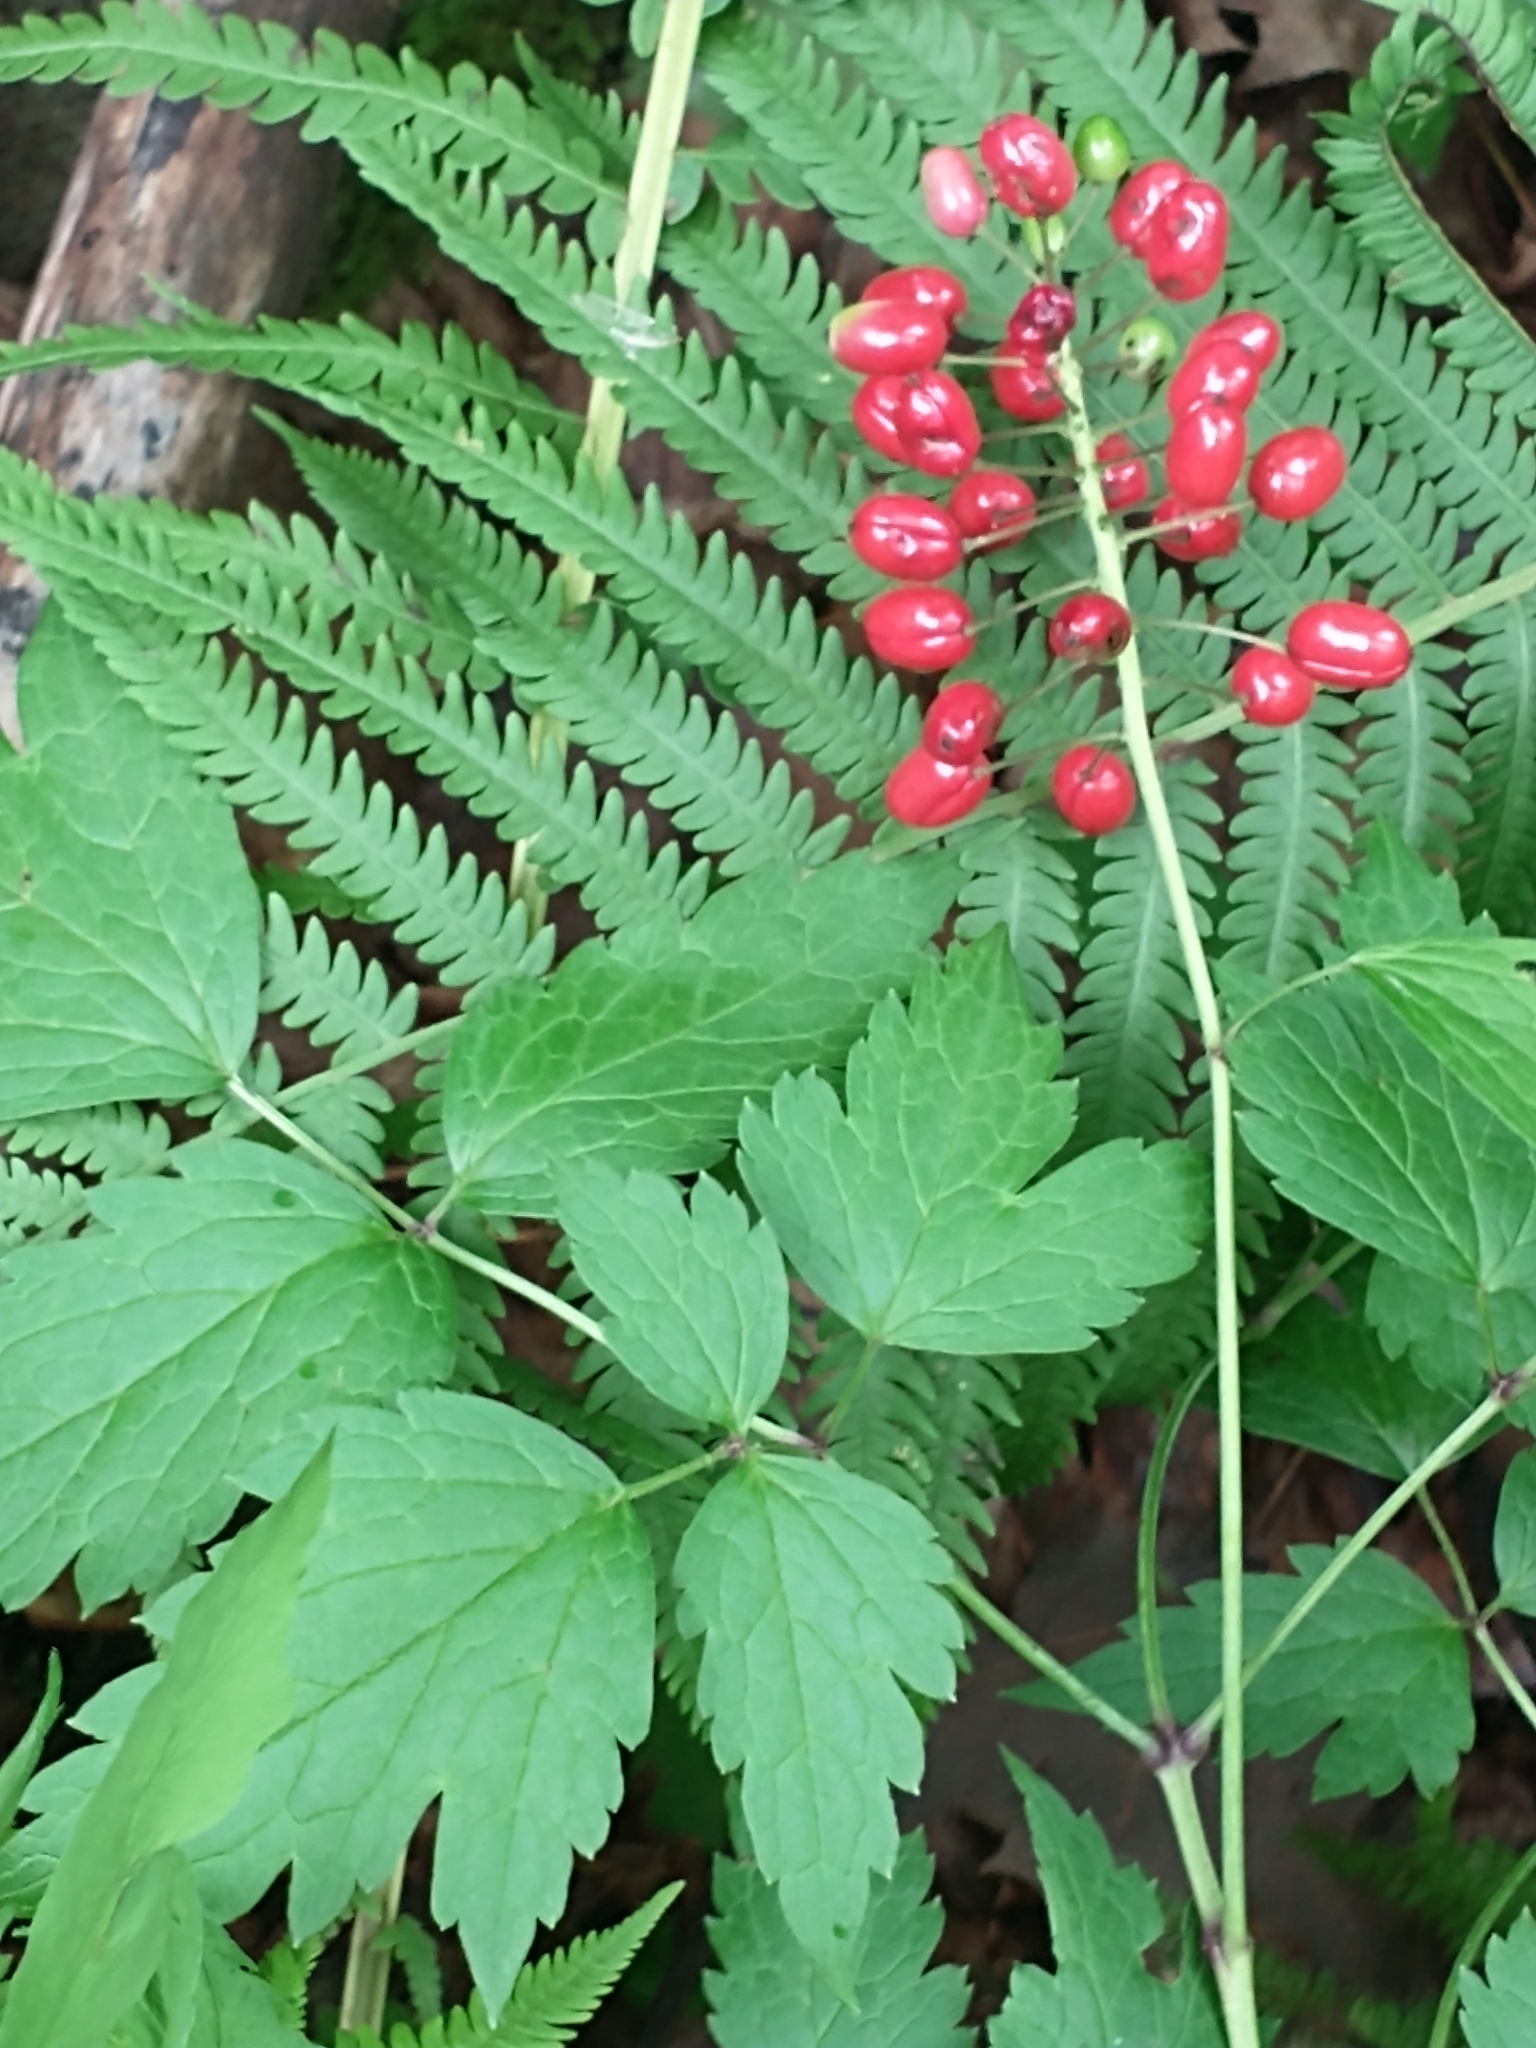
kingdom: Plantae
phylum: Tracheophyta
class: Magnoliopsida
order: Ranunculales
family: Ranunculaceae
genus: Actaea
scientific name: Actaea rubra
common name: Red baneberry
